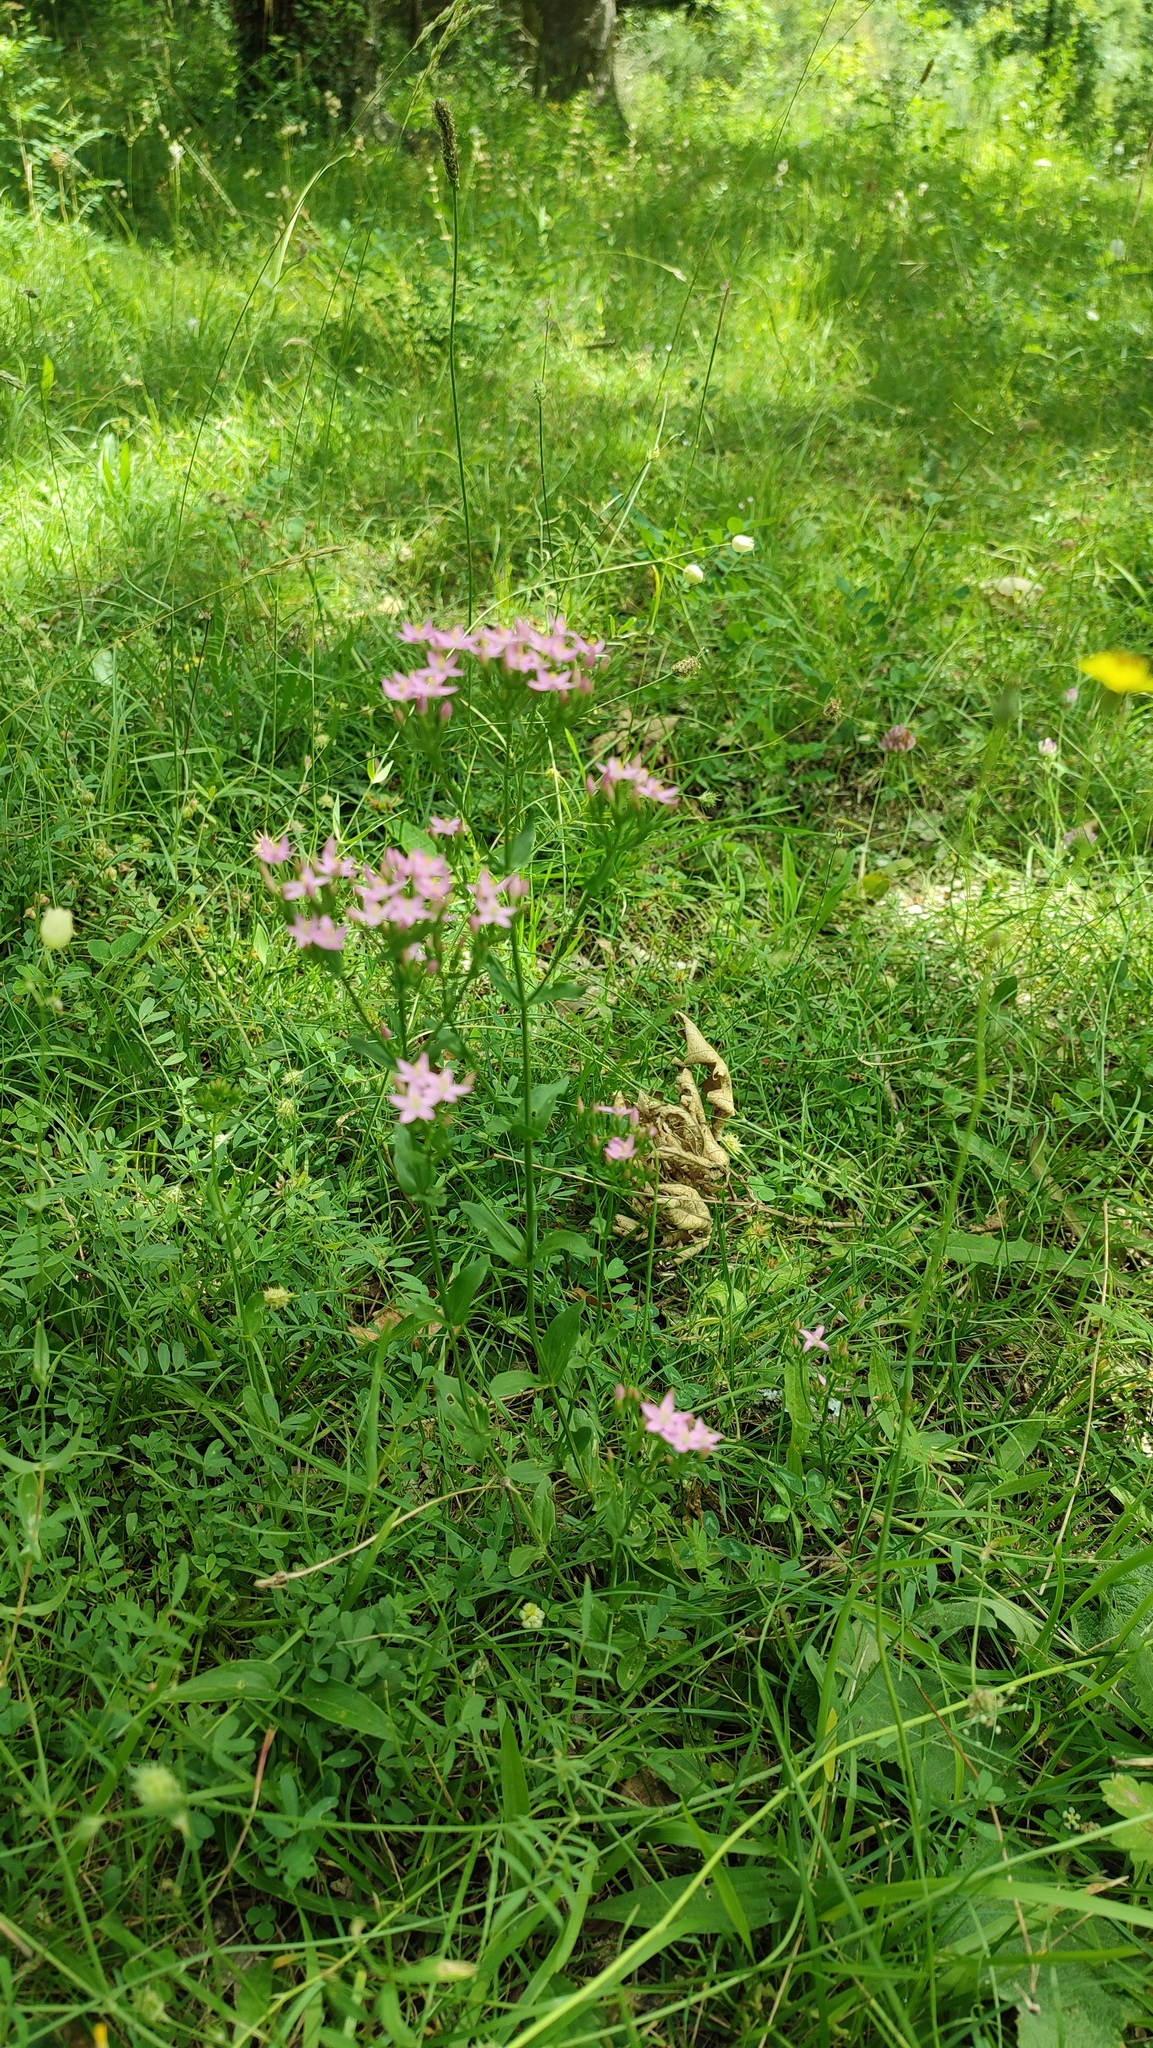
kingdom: Plantae
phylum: Tracheophyta
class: Magnoliopsida
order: Gentianales
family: Gentianaceae
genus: Centaurium
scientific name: Centaurium erythraea
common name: Common centaury
